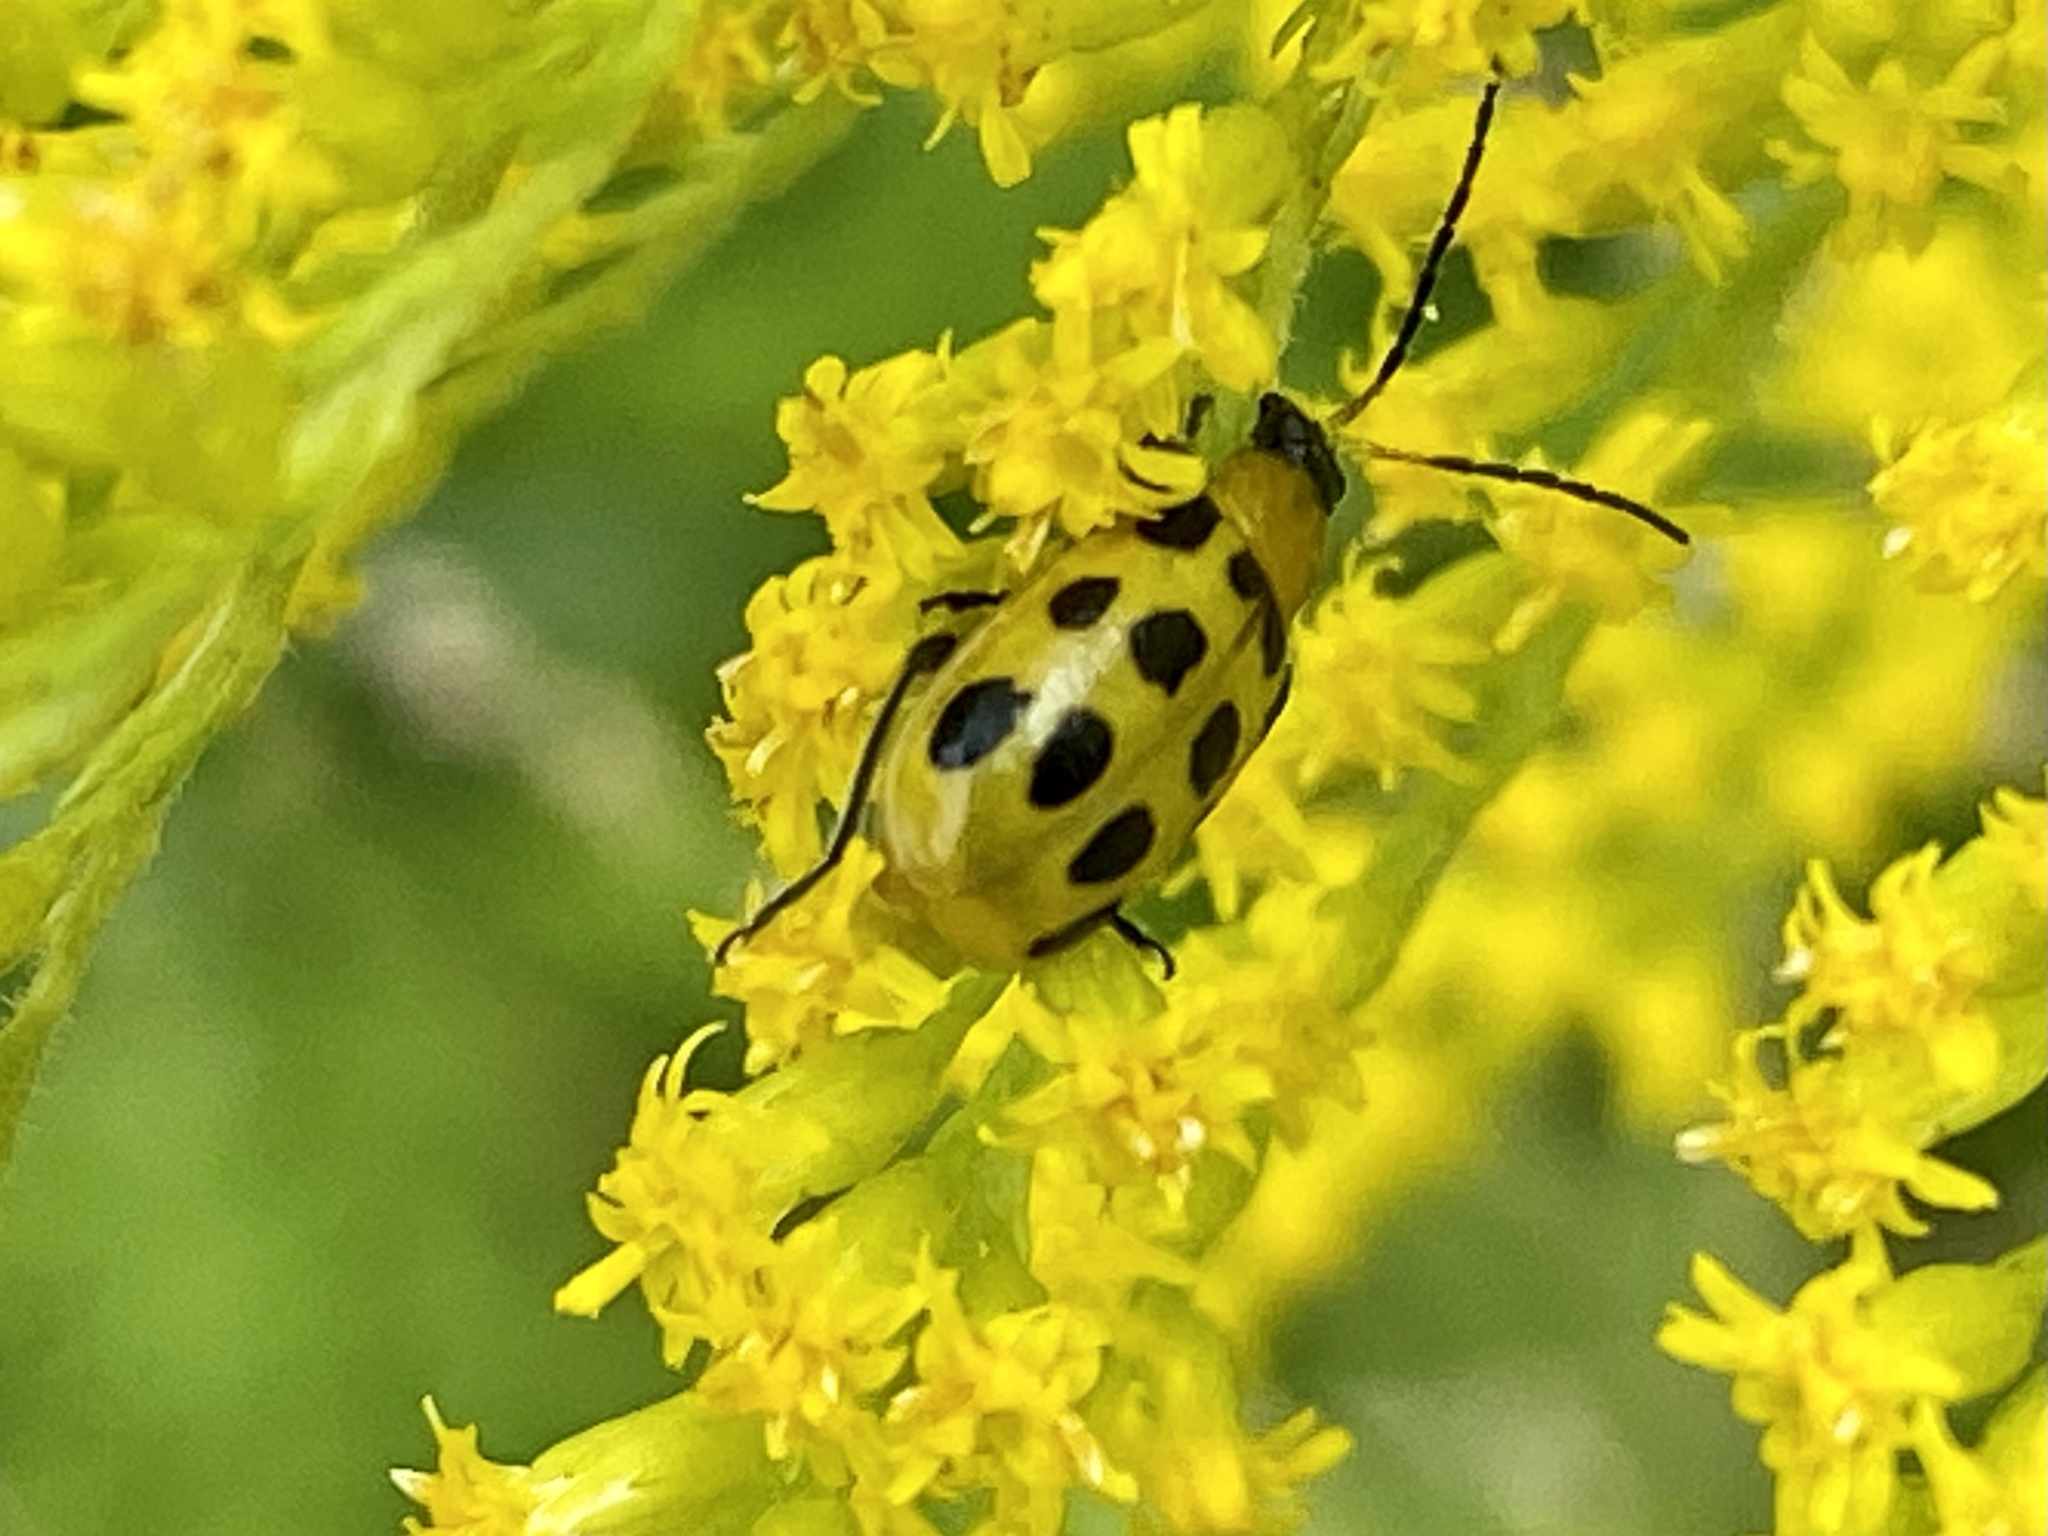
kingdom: Animalia
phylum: Arthropoda
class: Insecta
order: Coleoptera
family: Chrysomelidae
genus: Diabrotica
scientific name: Diabrotica undecimpunctata
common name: Spotted cucumber beetle
